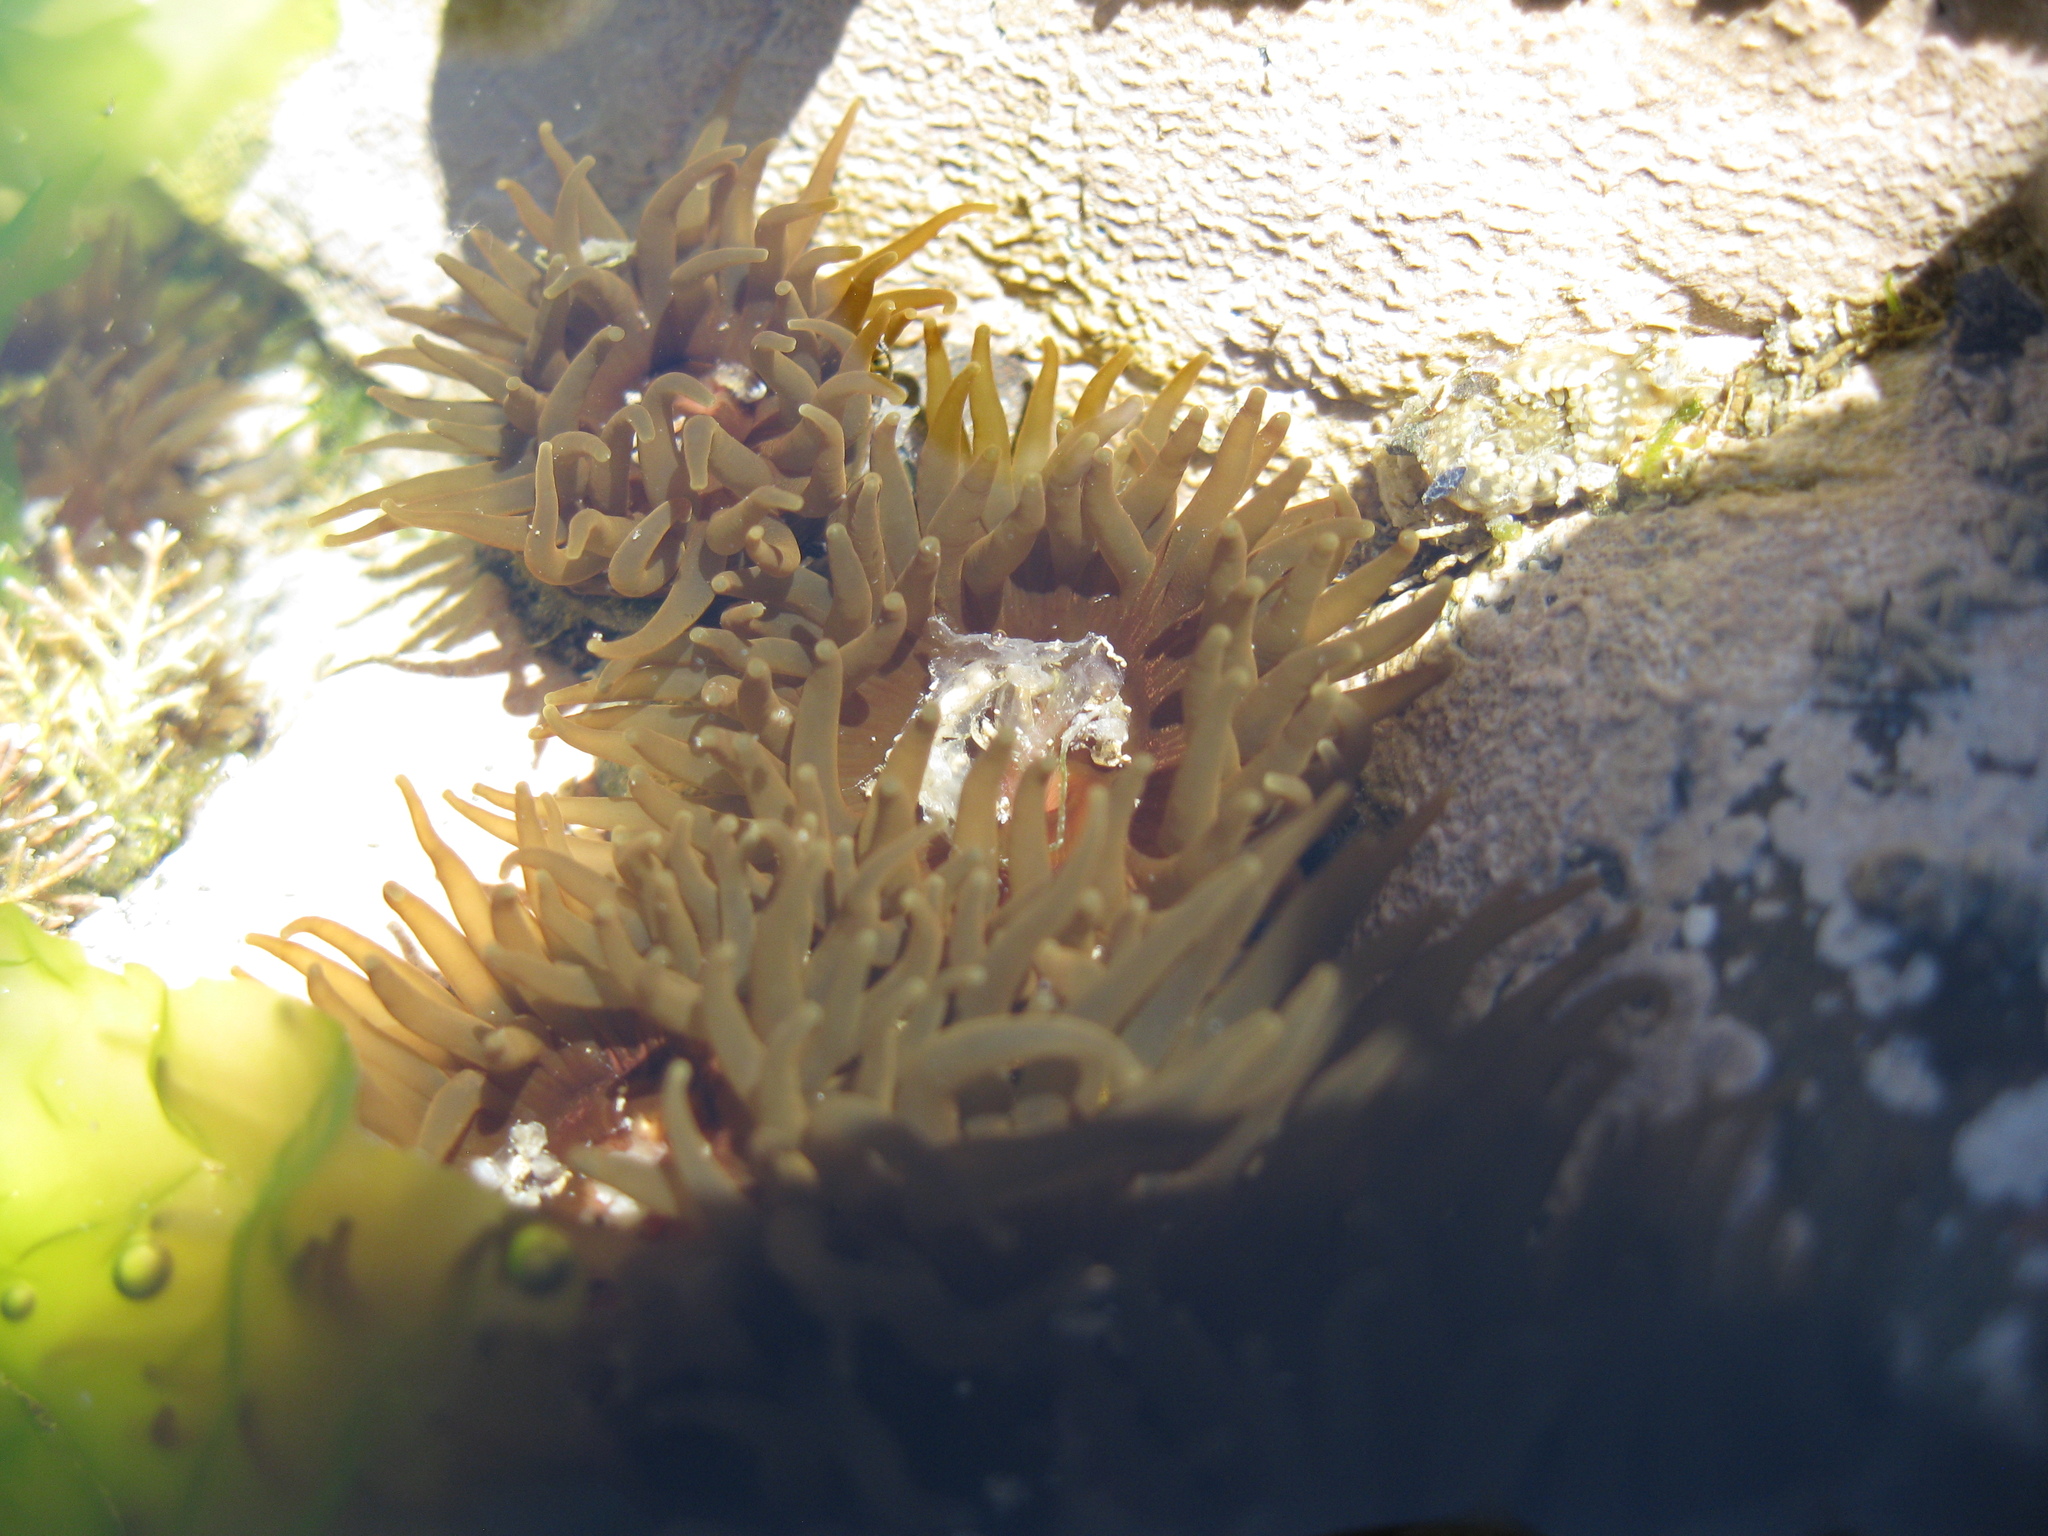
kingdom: Animalia
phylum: Cnidaria
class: Anthozoa
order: Actiniaria
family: Actiniidae
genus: Isactinia
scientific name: Isactinia olivacea
